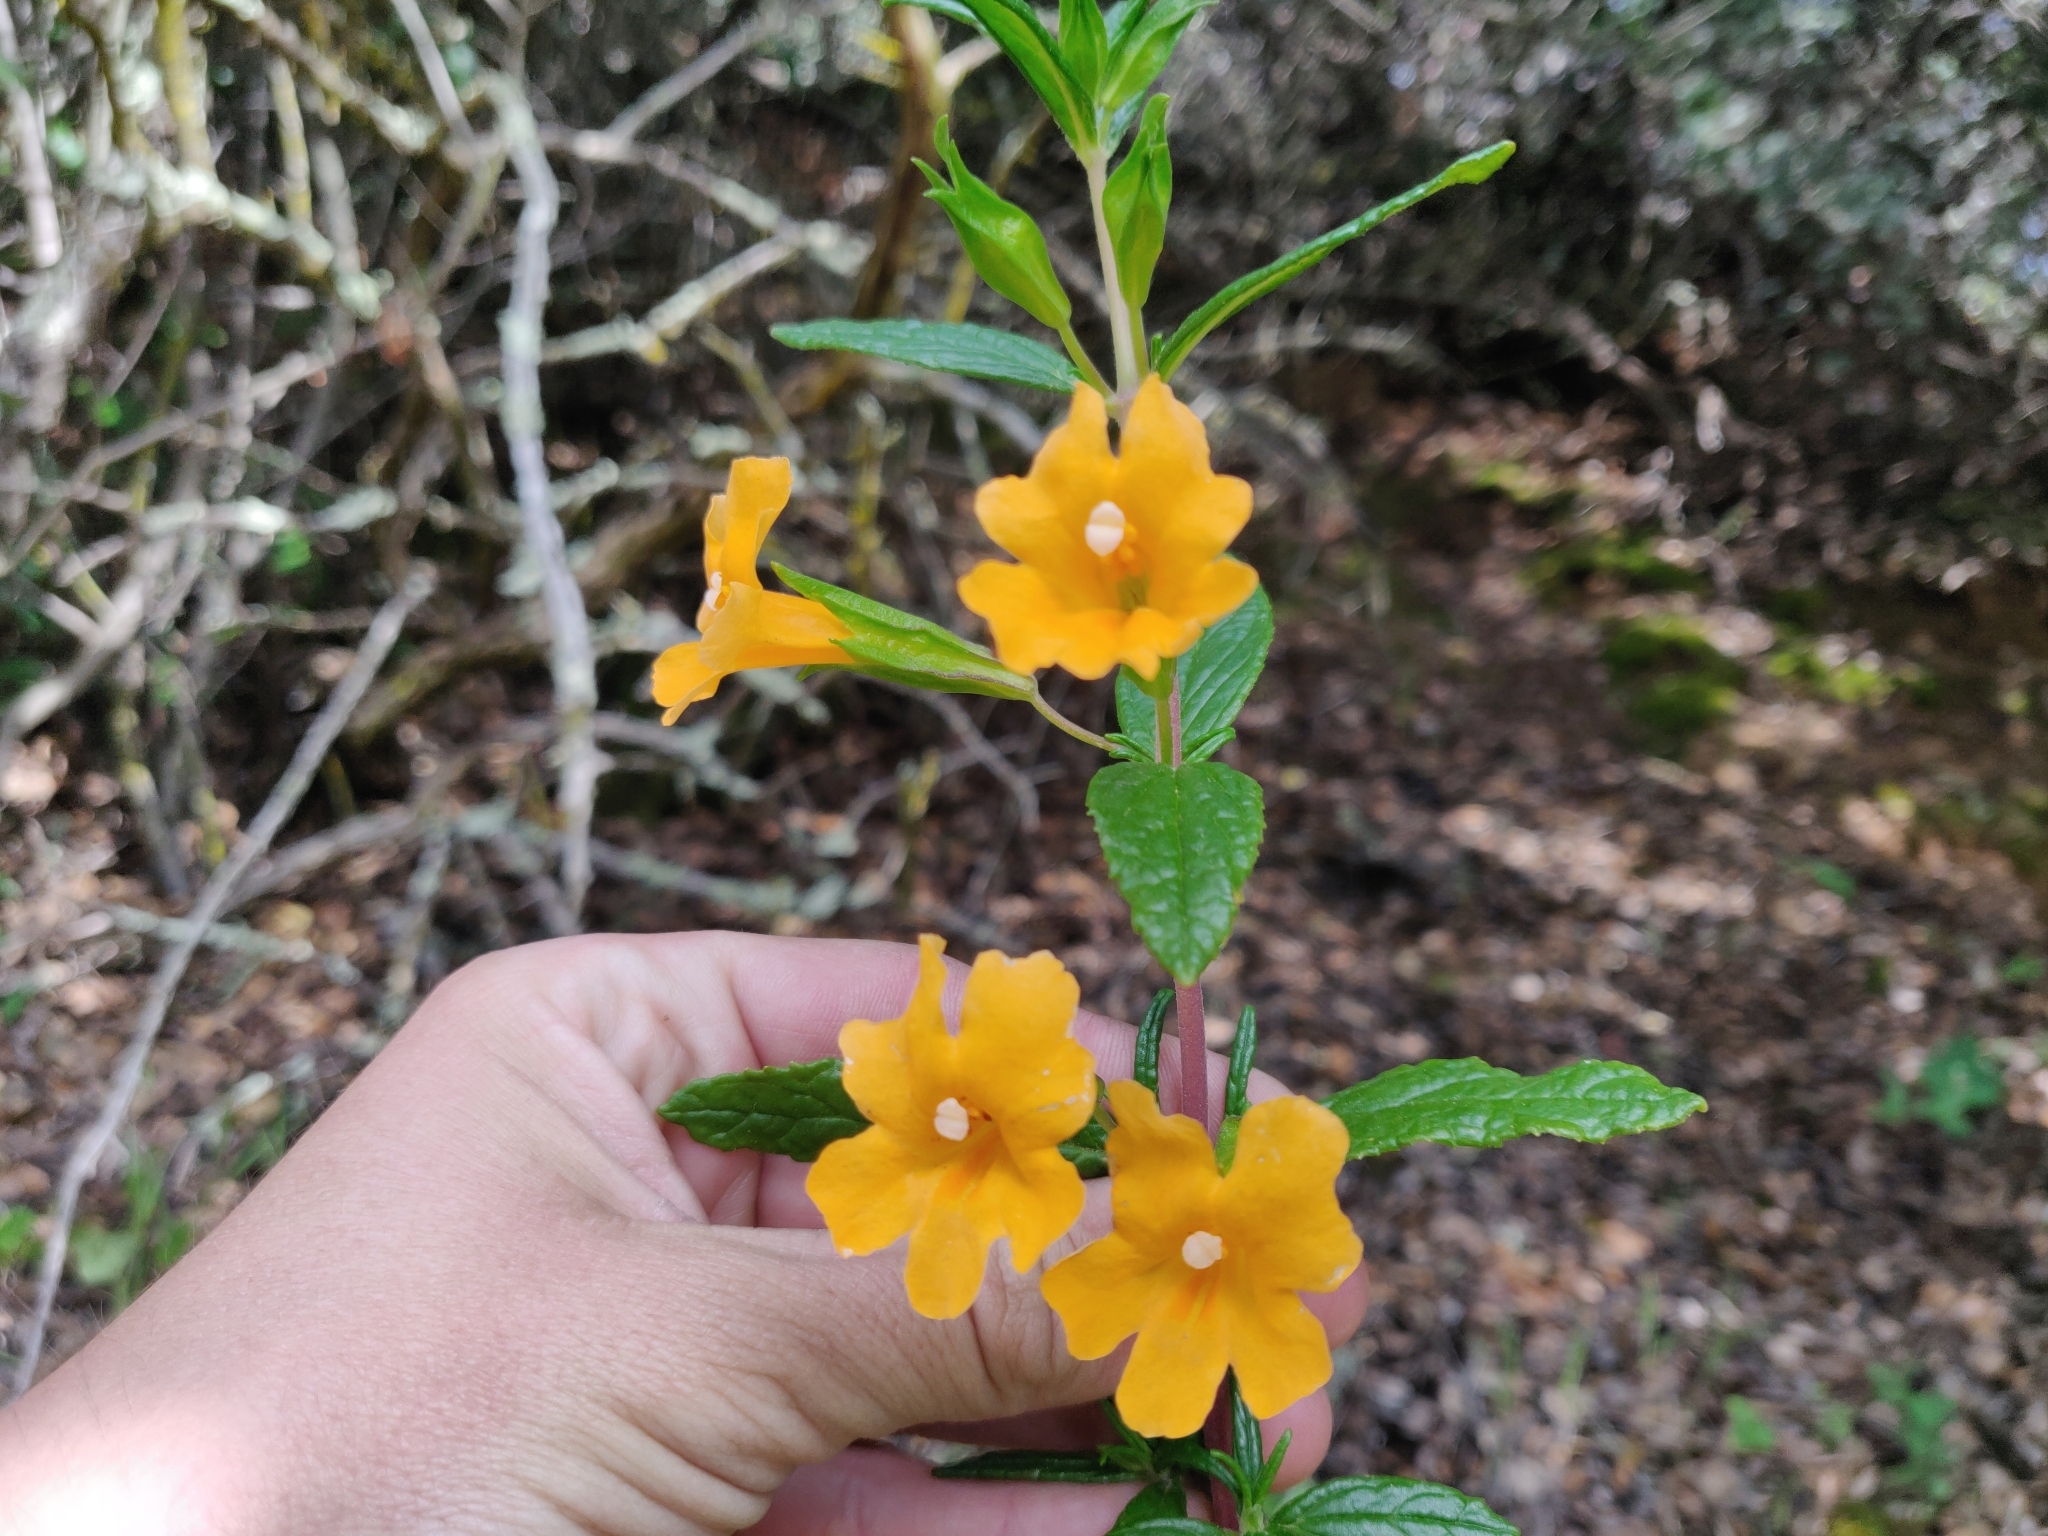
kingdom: Plantae
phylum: Tracheophyta
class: Magnoliopsida
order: Lamiales
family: Phrymaceae
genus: Diplacus
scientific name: Diplacus aurantiacus
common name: Bush monkey-flower
